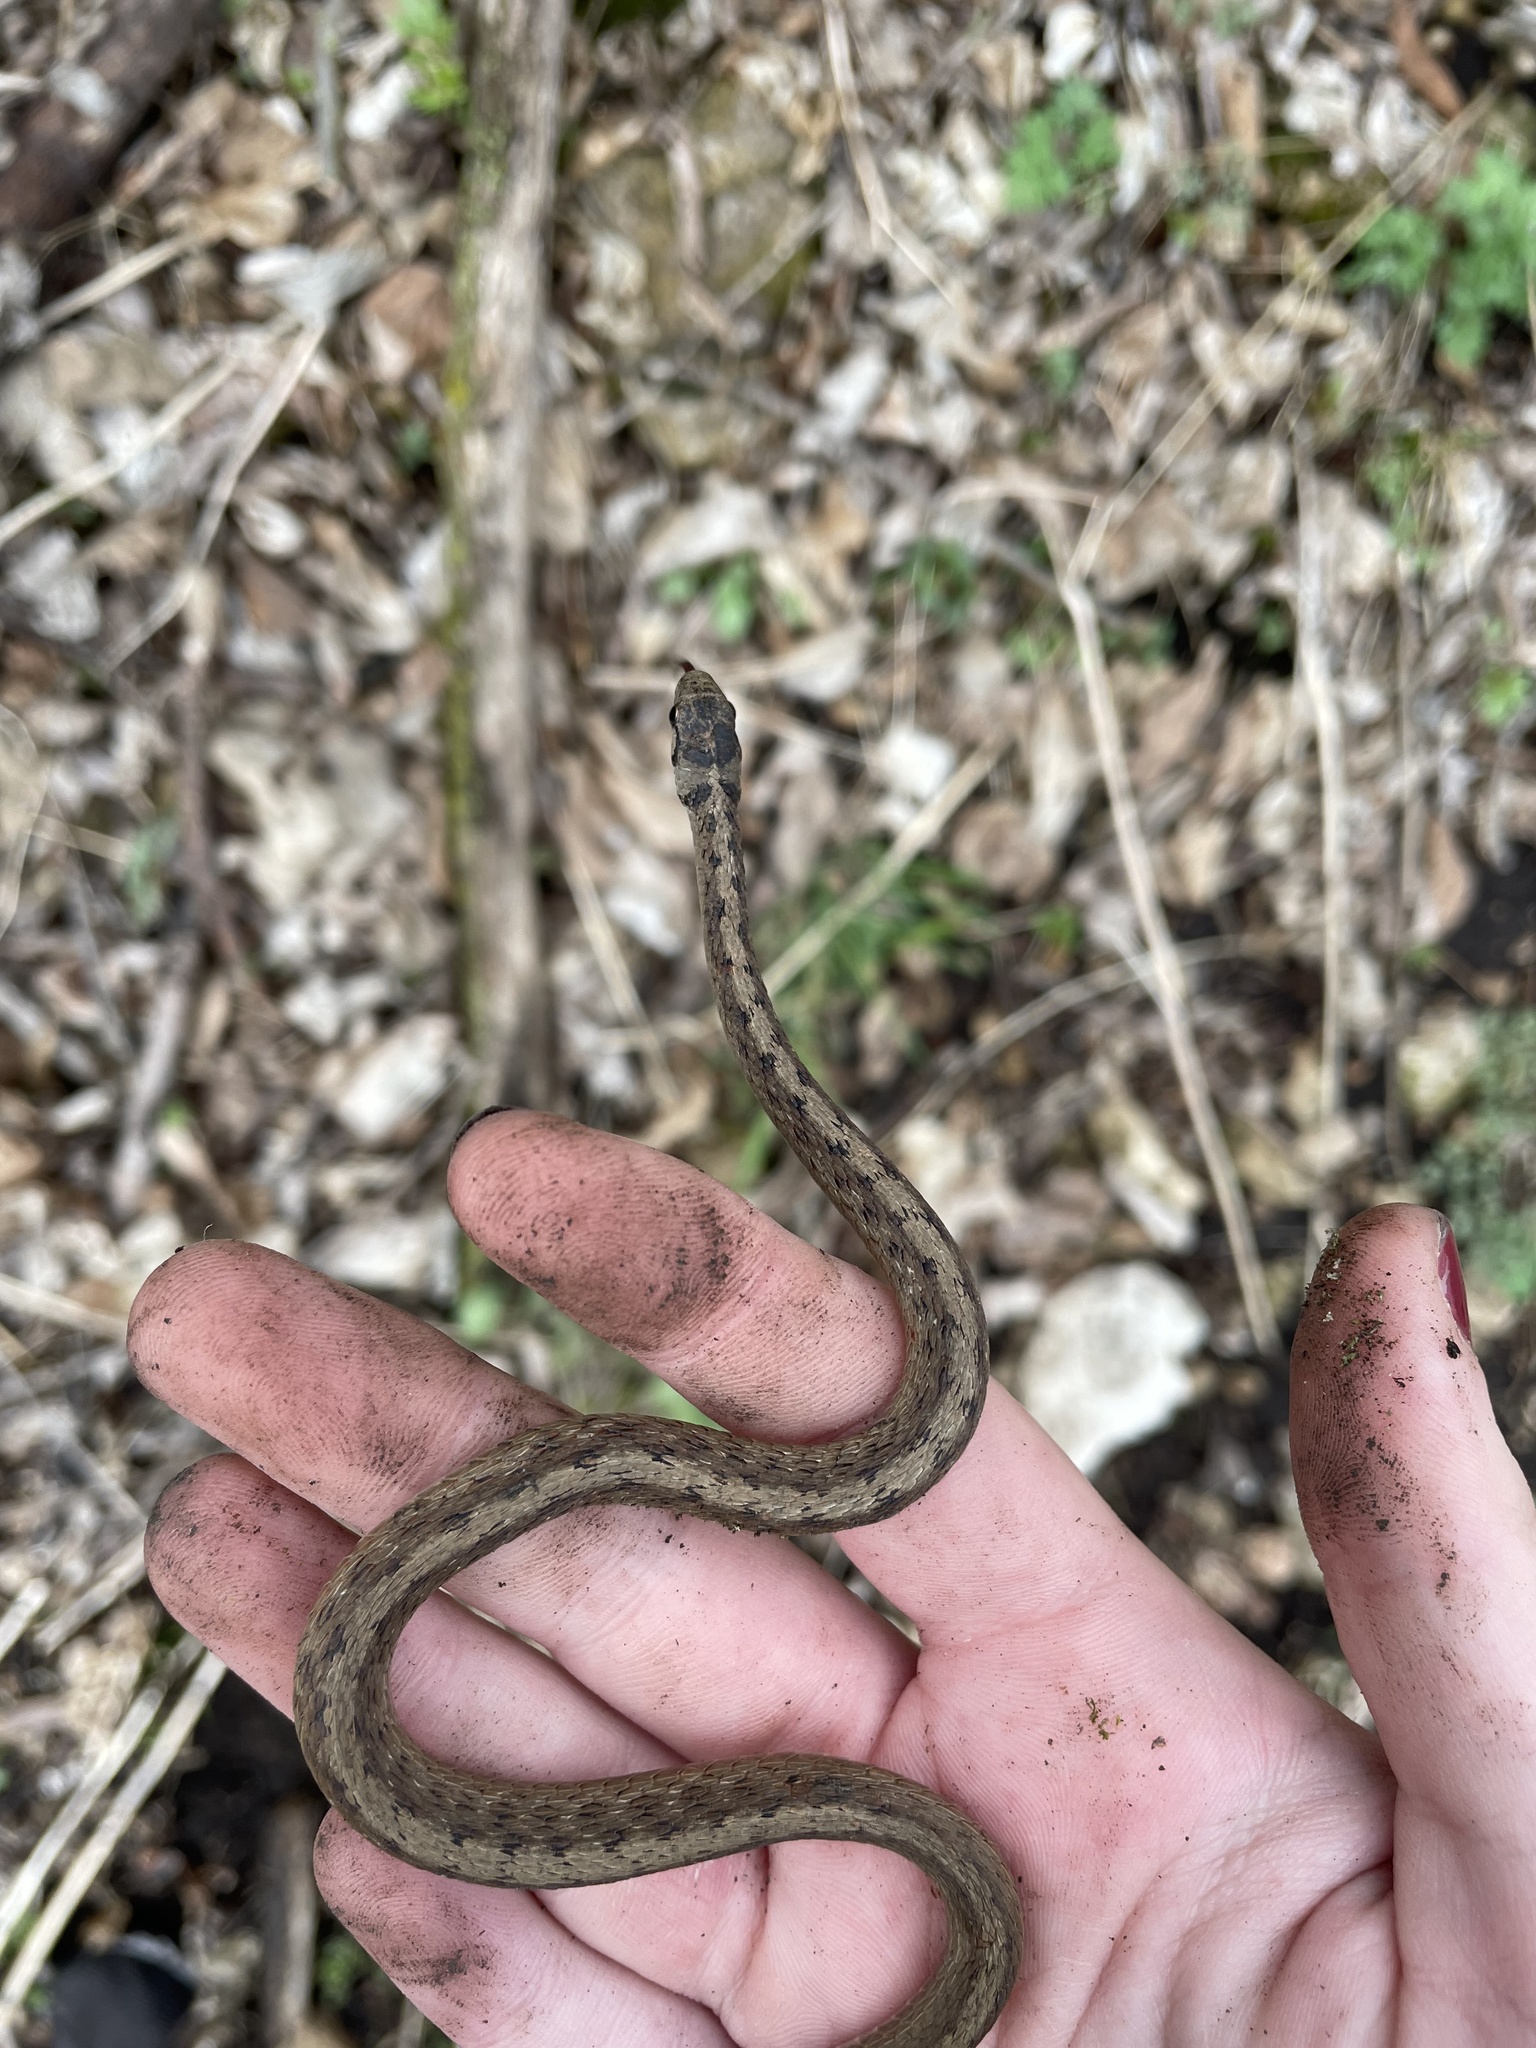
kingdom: Animalia
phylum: Chordata
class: Squamata
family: Colubridae
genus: Storeria
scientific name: Storeria dekayi
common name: (dekay’s) brown snake
